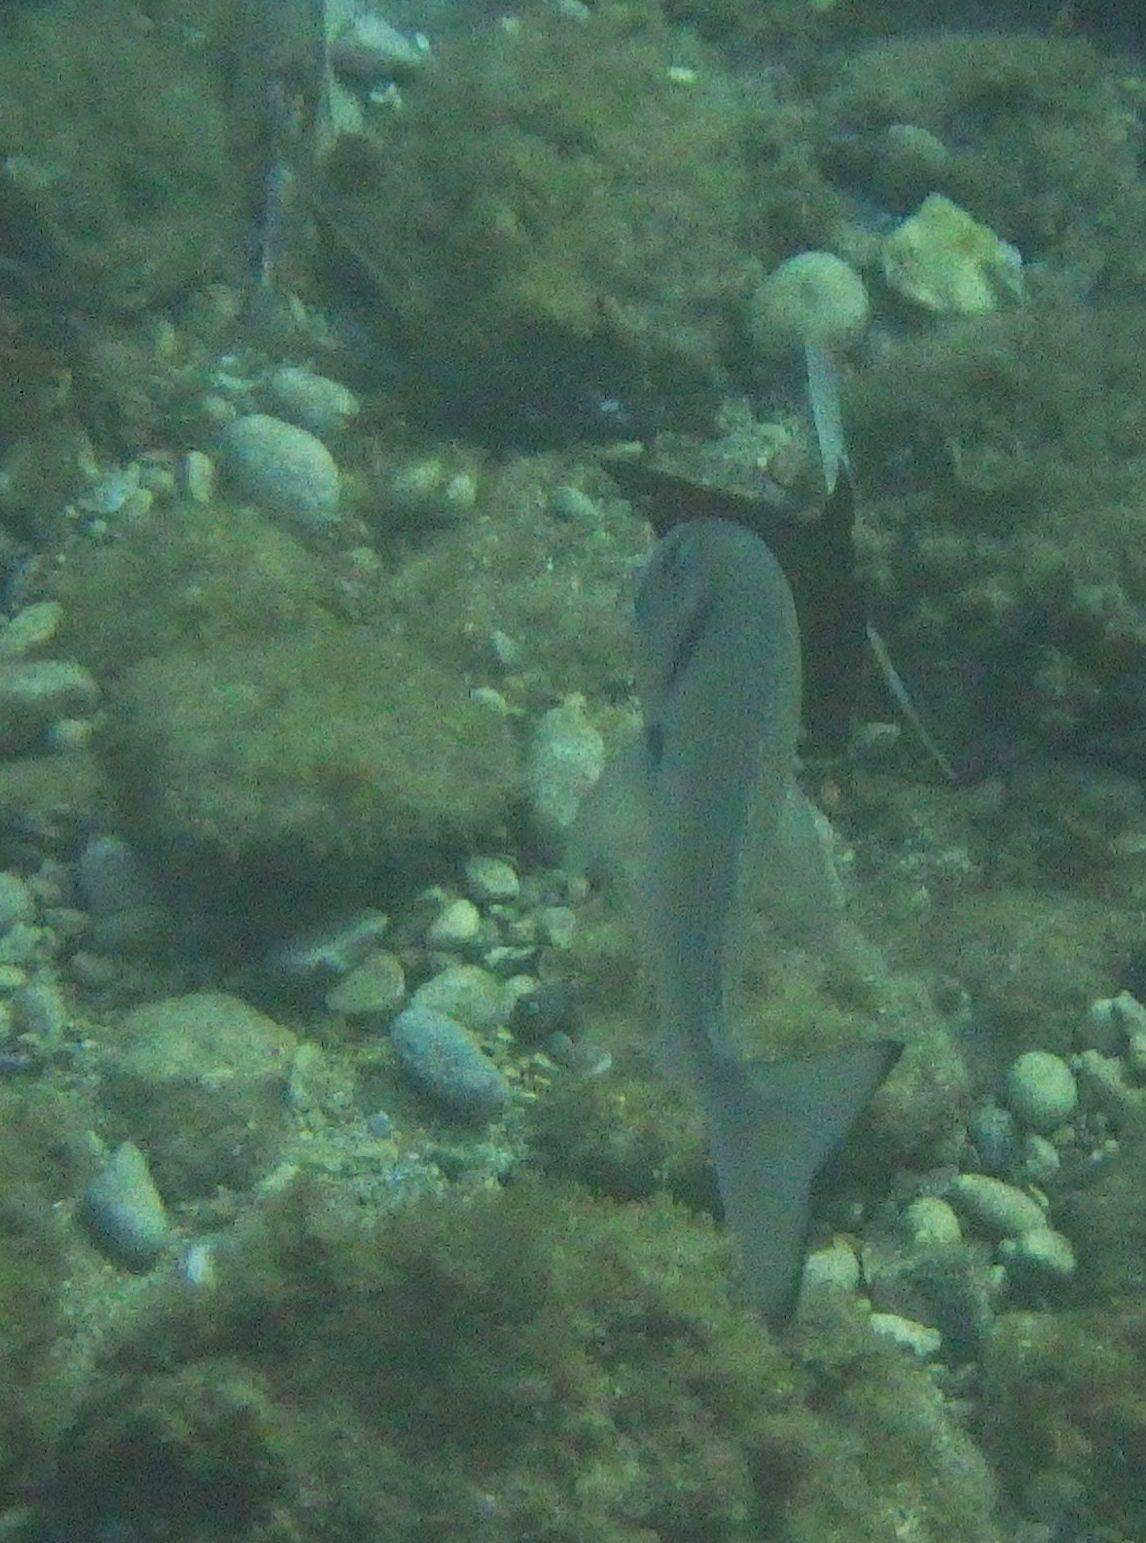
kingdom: Animalia
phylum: Chordata
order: Perciformes
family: Sparidae
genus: Sparus
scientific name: Sparus aurata
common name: Gilthead
